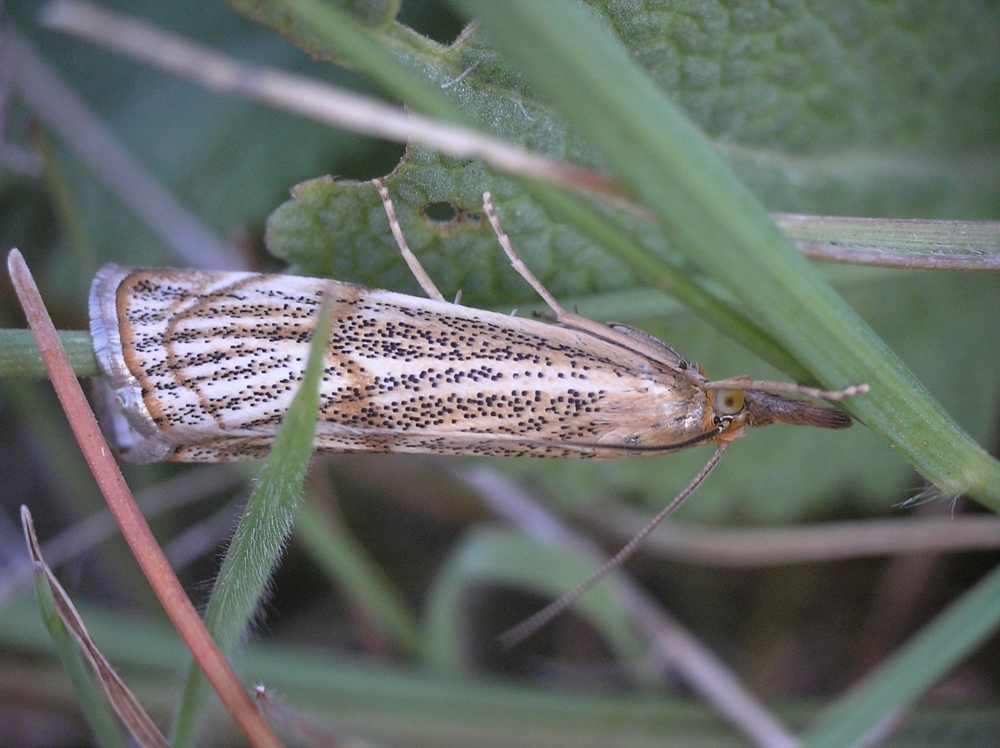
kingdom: Animalia
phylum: Arthropoda
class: Insecta
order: Lepidoptera
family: Crambidae
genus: Thisanotia
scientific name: Thisanotia chrysonuchella
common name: Powdered grass-veneer
